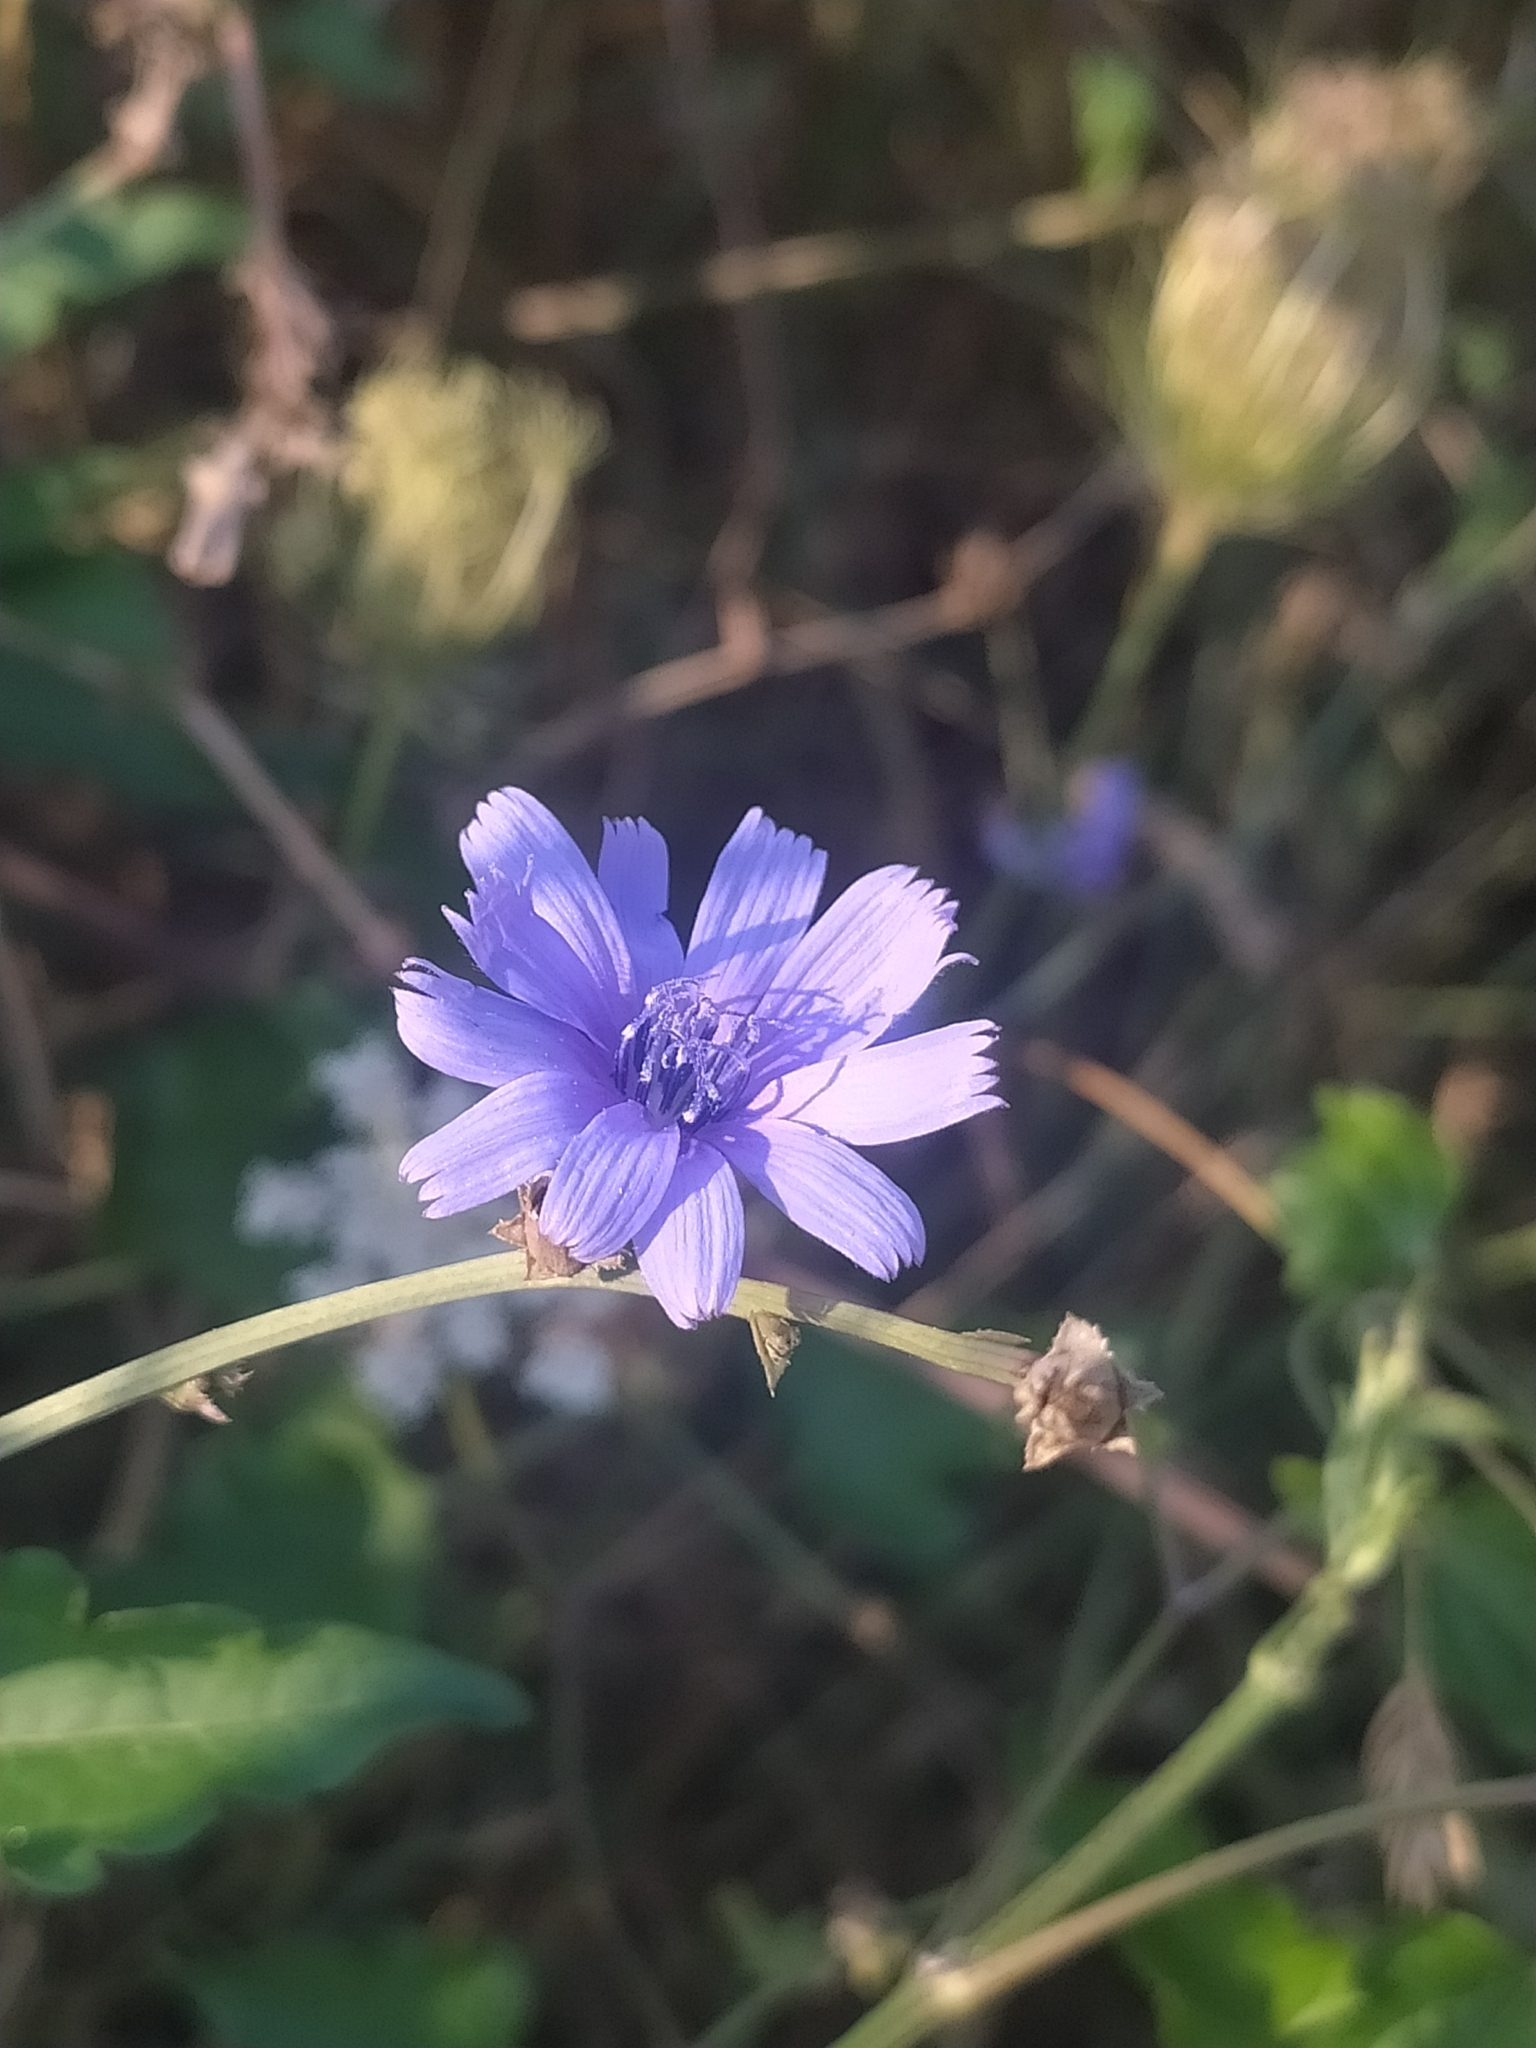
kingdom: Plantae
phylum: Tracheophyta
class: Magnoliopsida
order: Asterales
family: Asteraceae
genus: Cichorium
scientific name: Cichorium intybus
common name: Chicory
